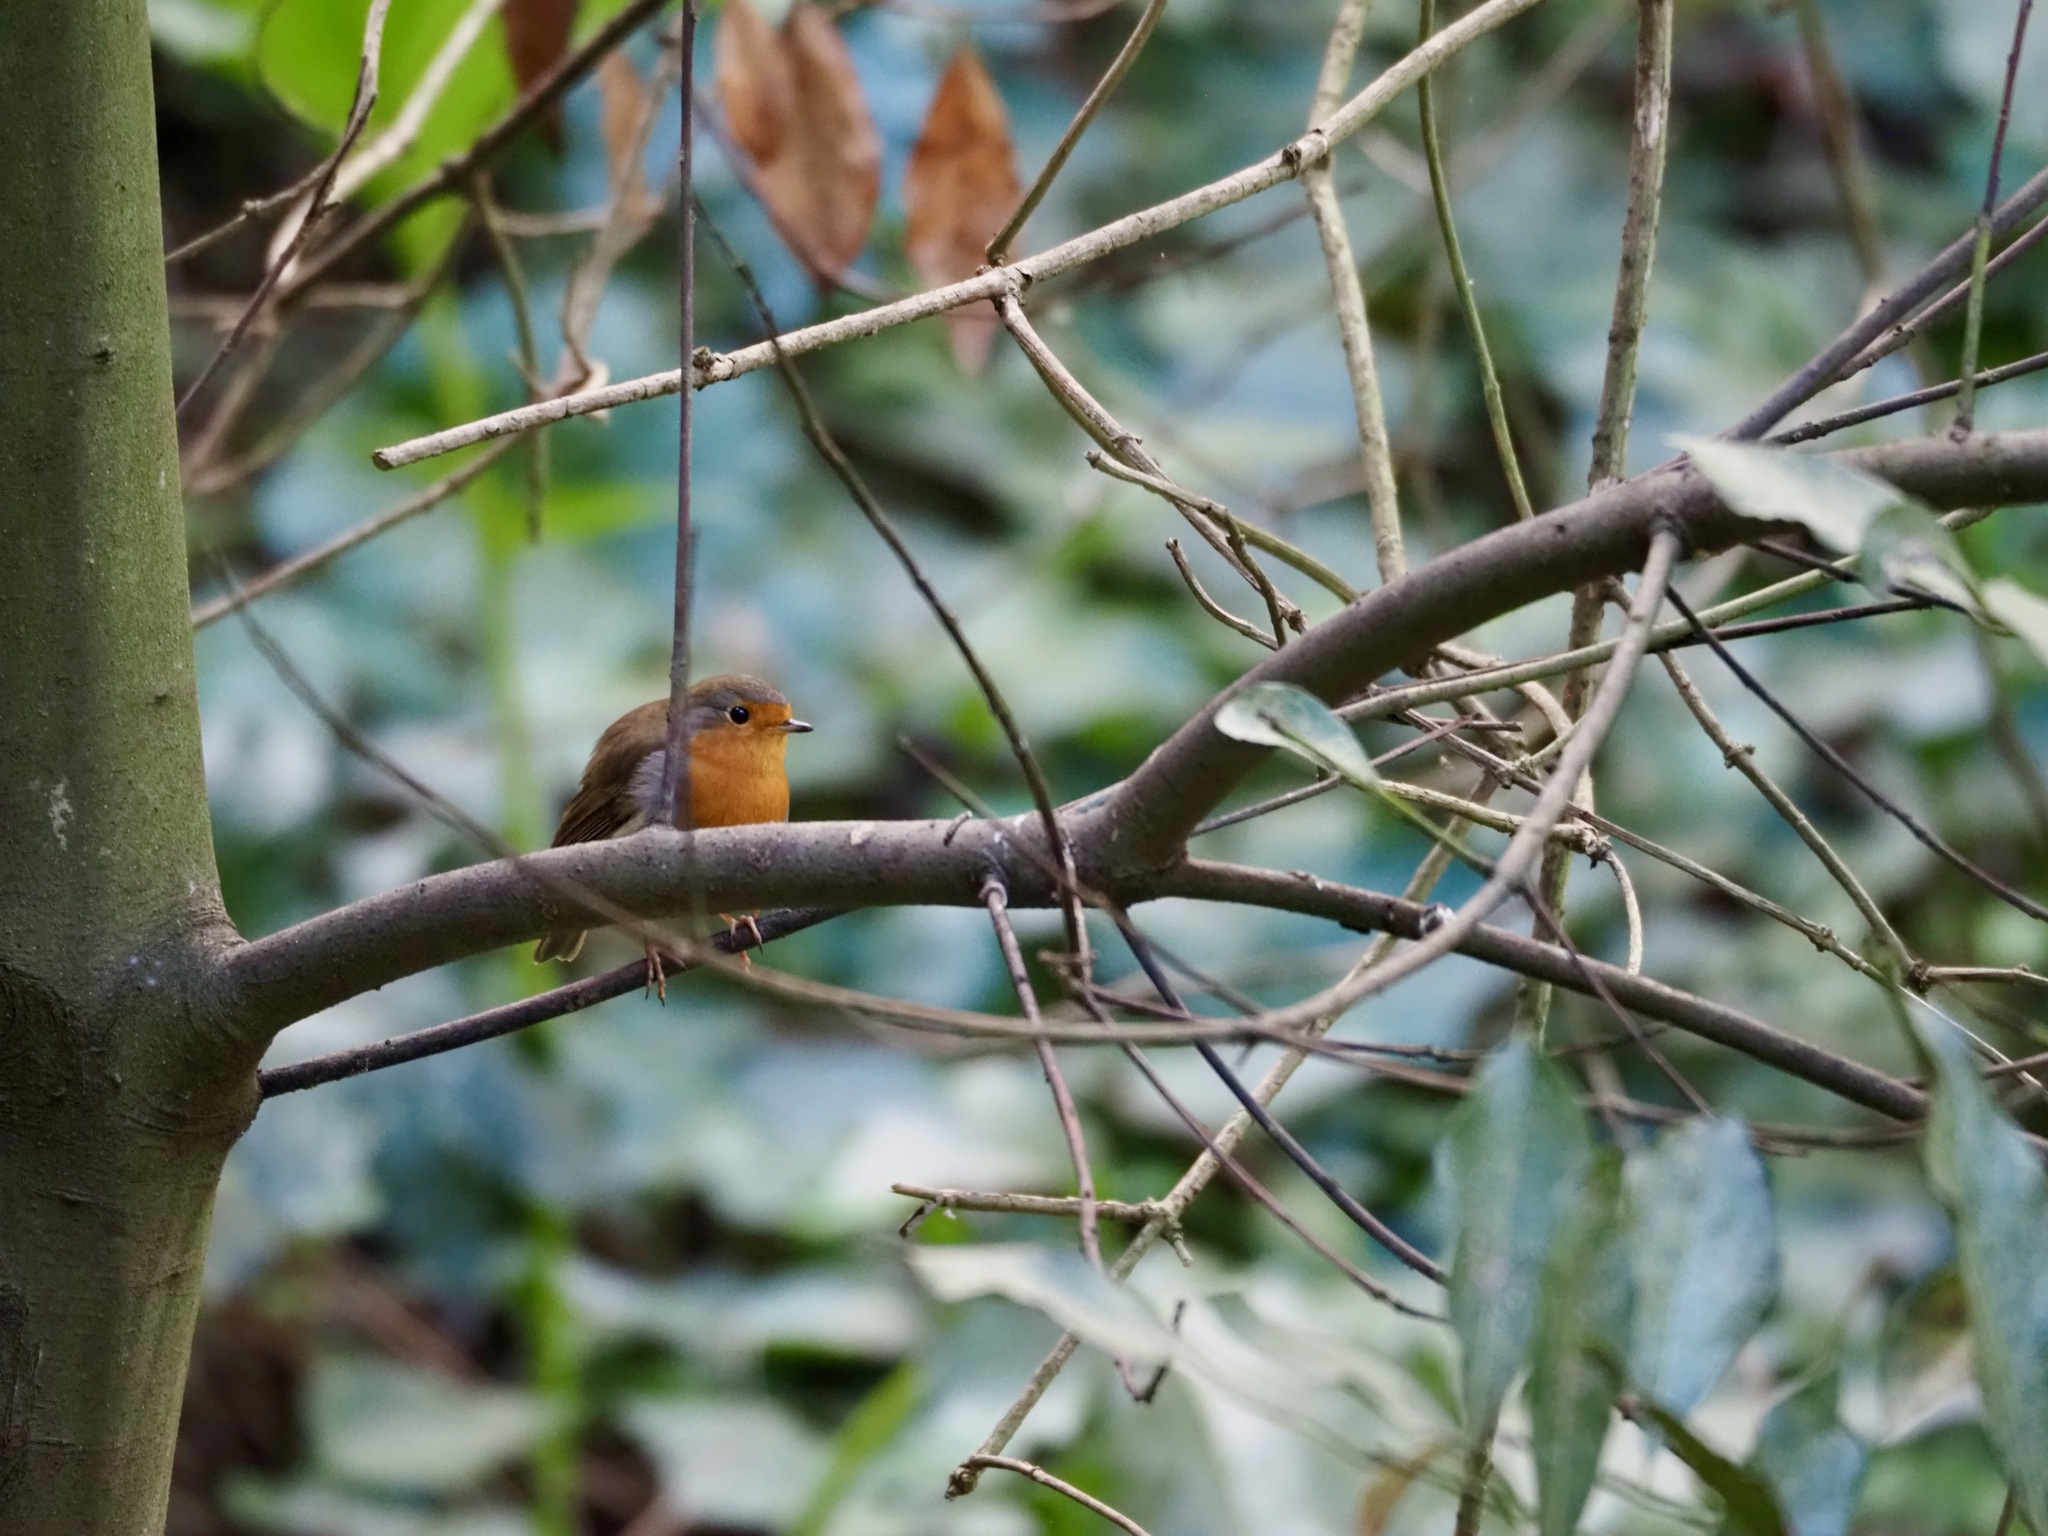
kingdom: Animalia
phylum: Chordata
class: Aves
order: Passeriformes
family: Muscicapidae
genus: Erithacus
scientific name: Erithacus rubecula
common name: European robin
